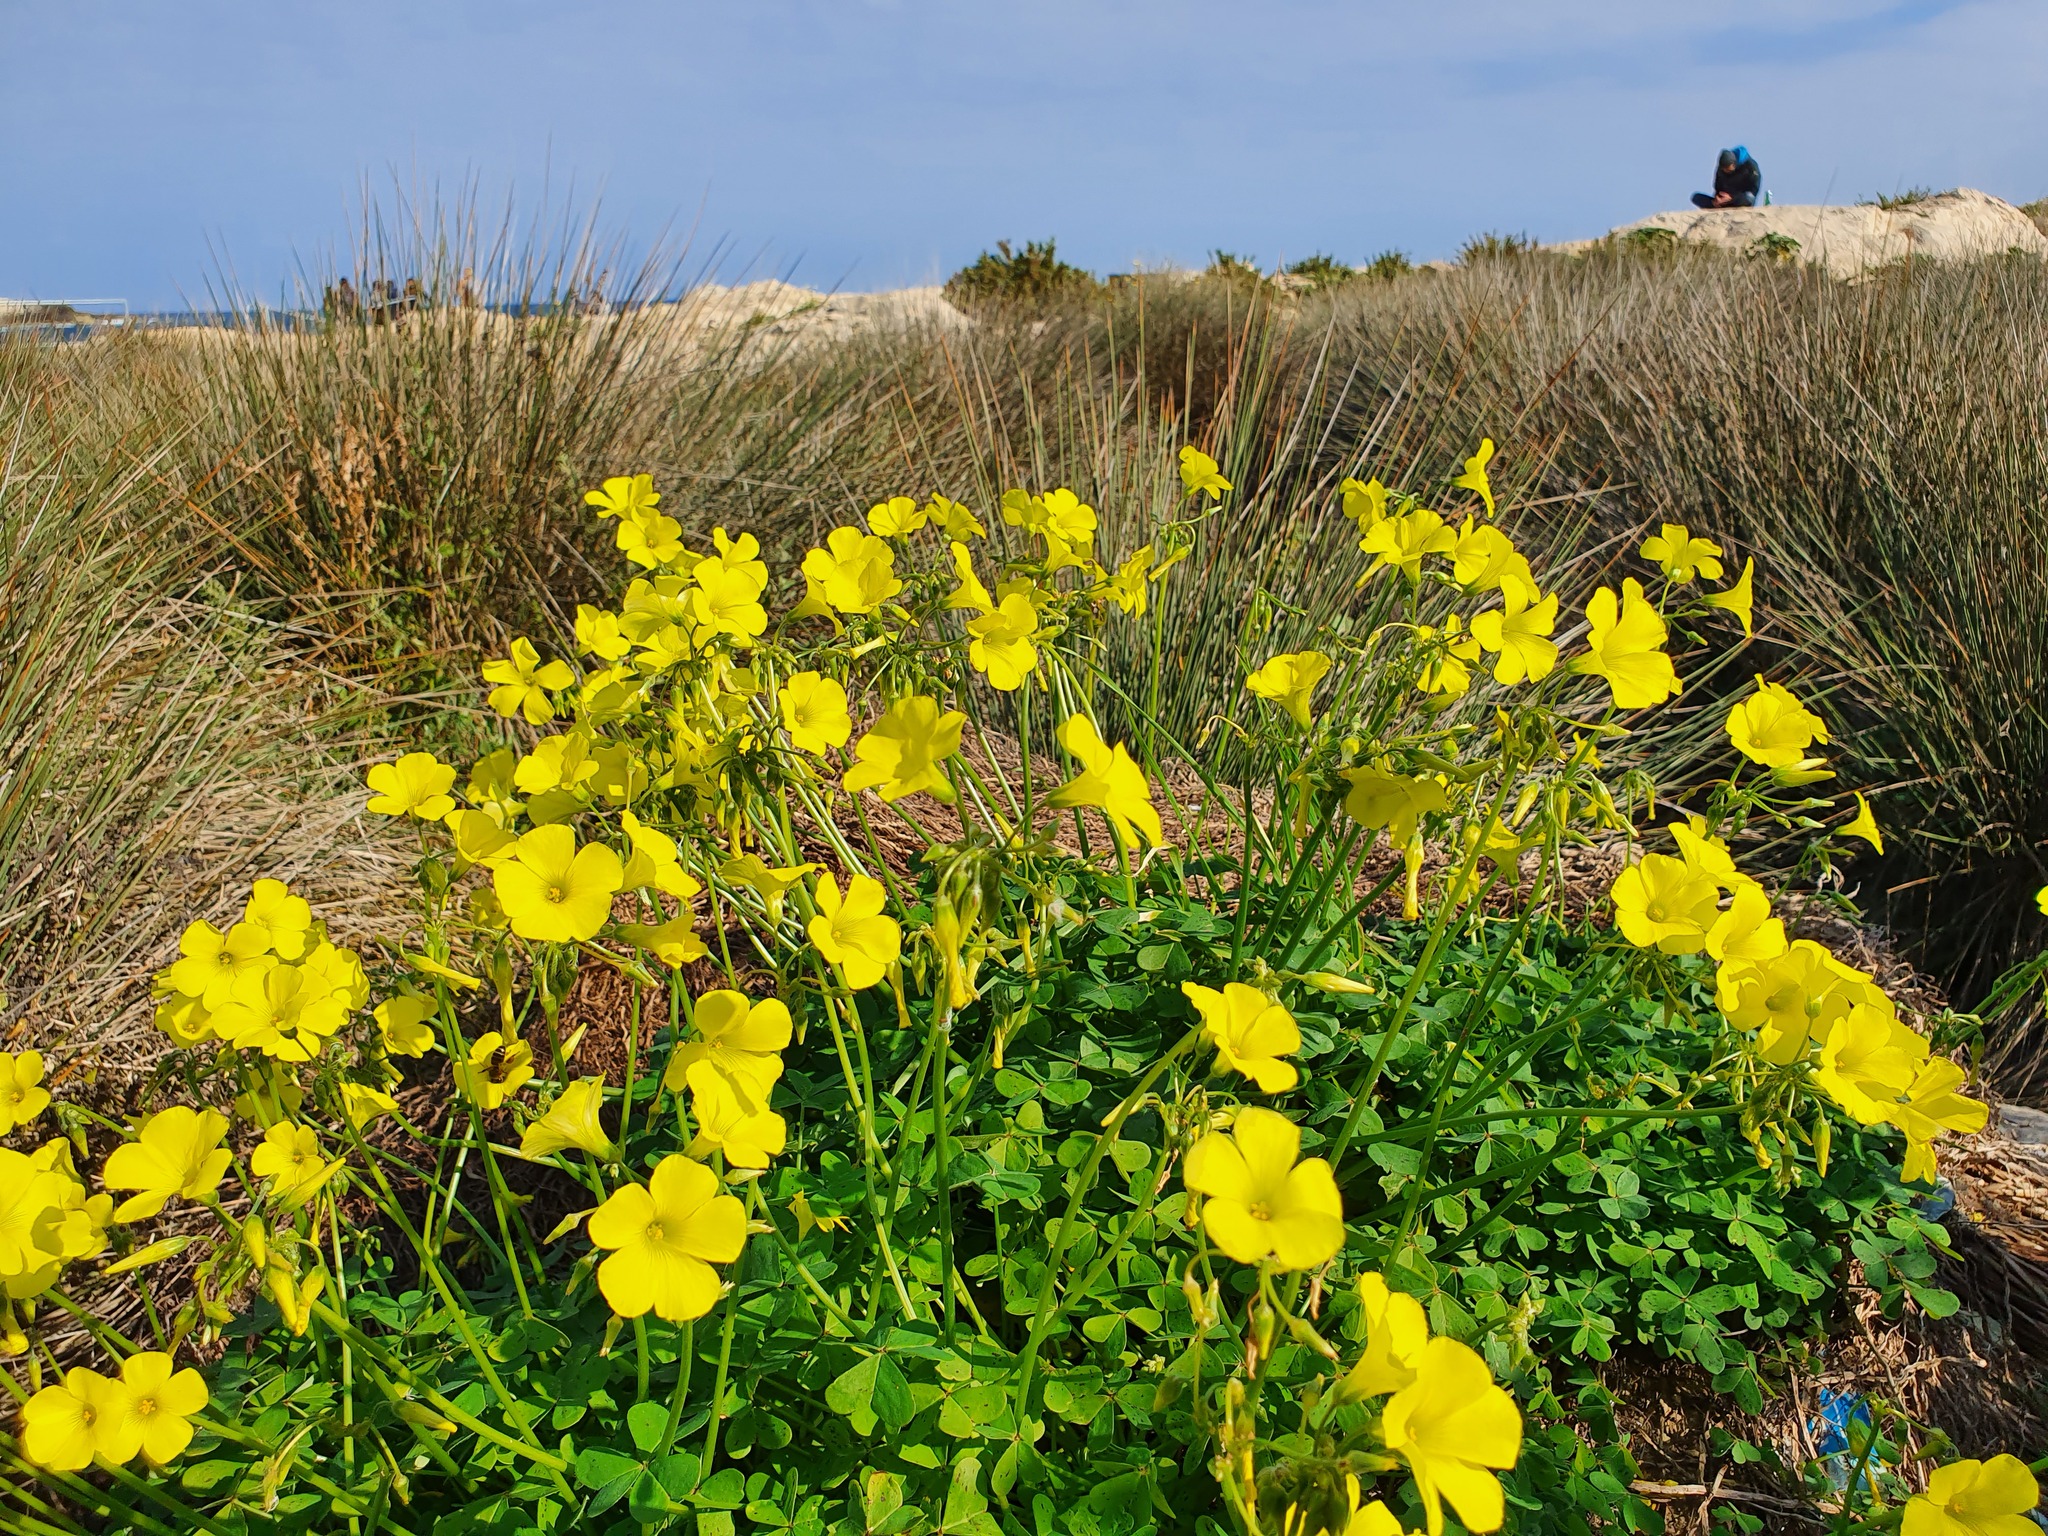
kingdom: Plantae
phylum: Tracheophyta
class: Magnoliopsida
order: Oxalidales
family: Oxalidaceae
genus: Oxalis
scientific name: Oxalis pes-caprae
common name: Bermuda-buttercup
